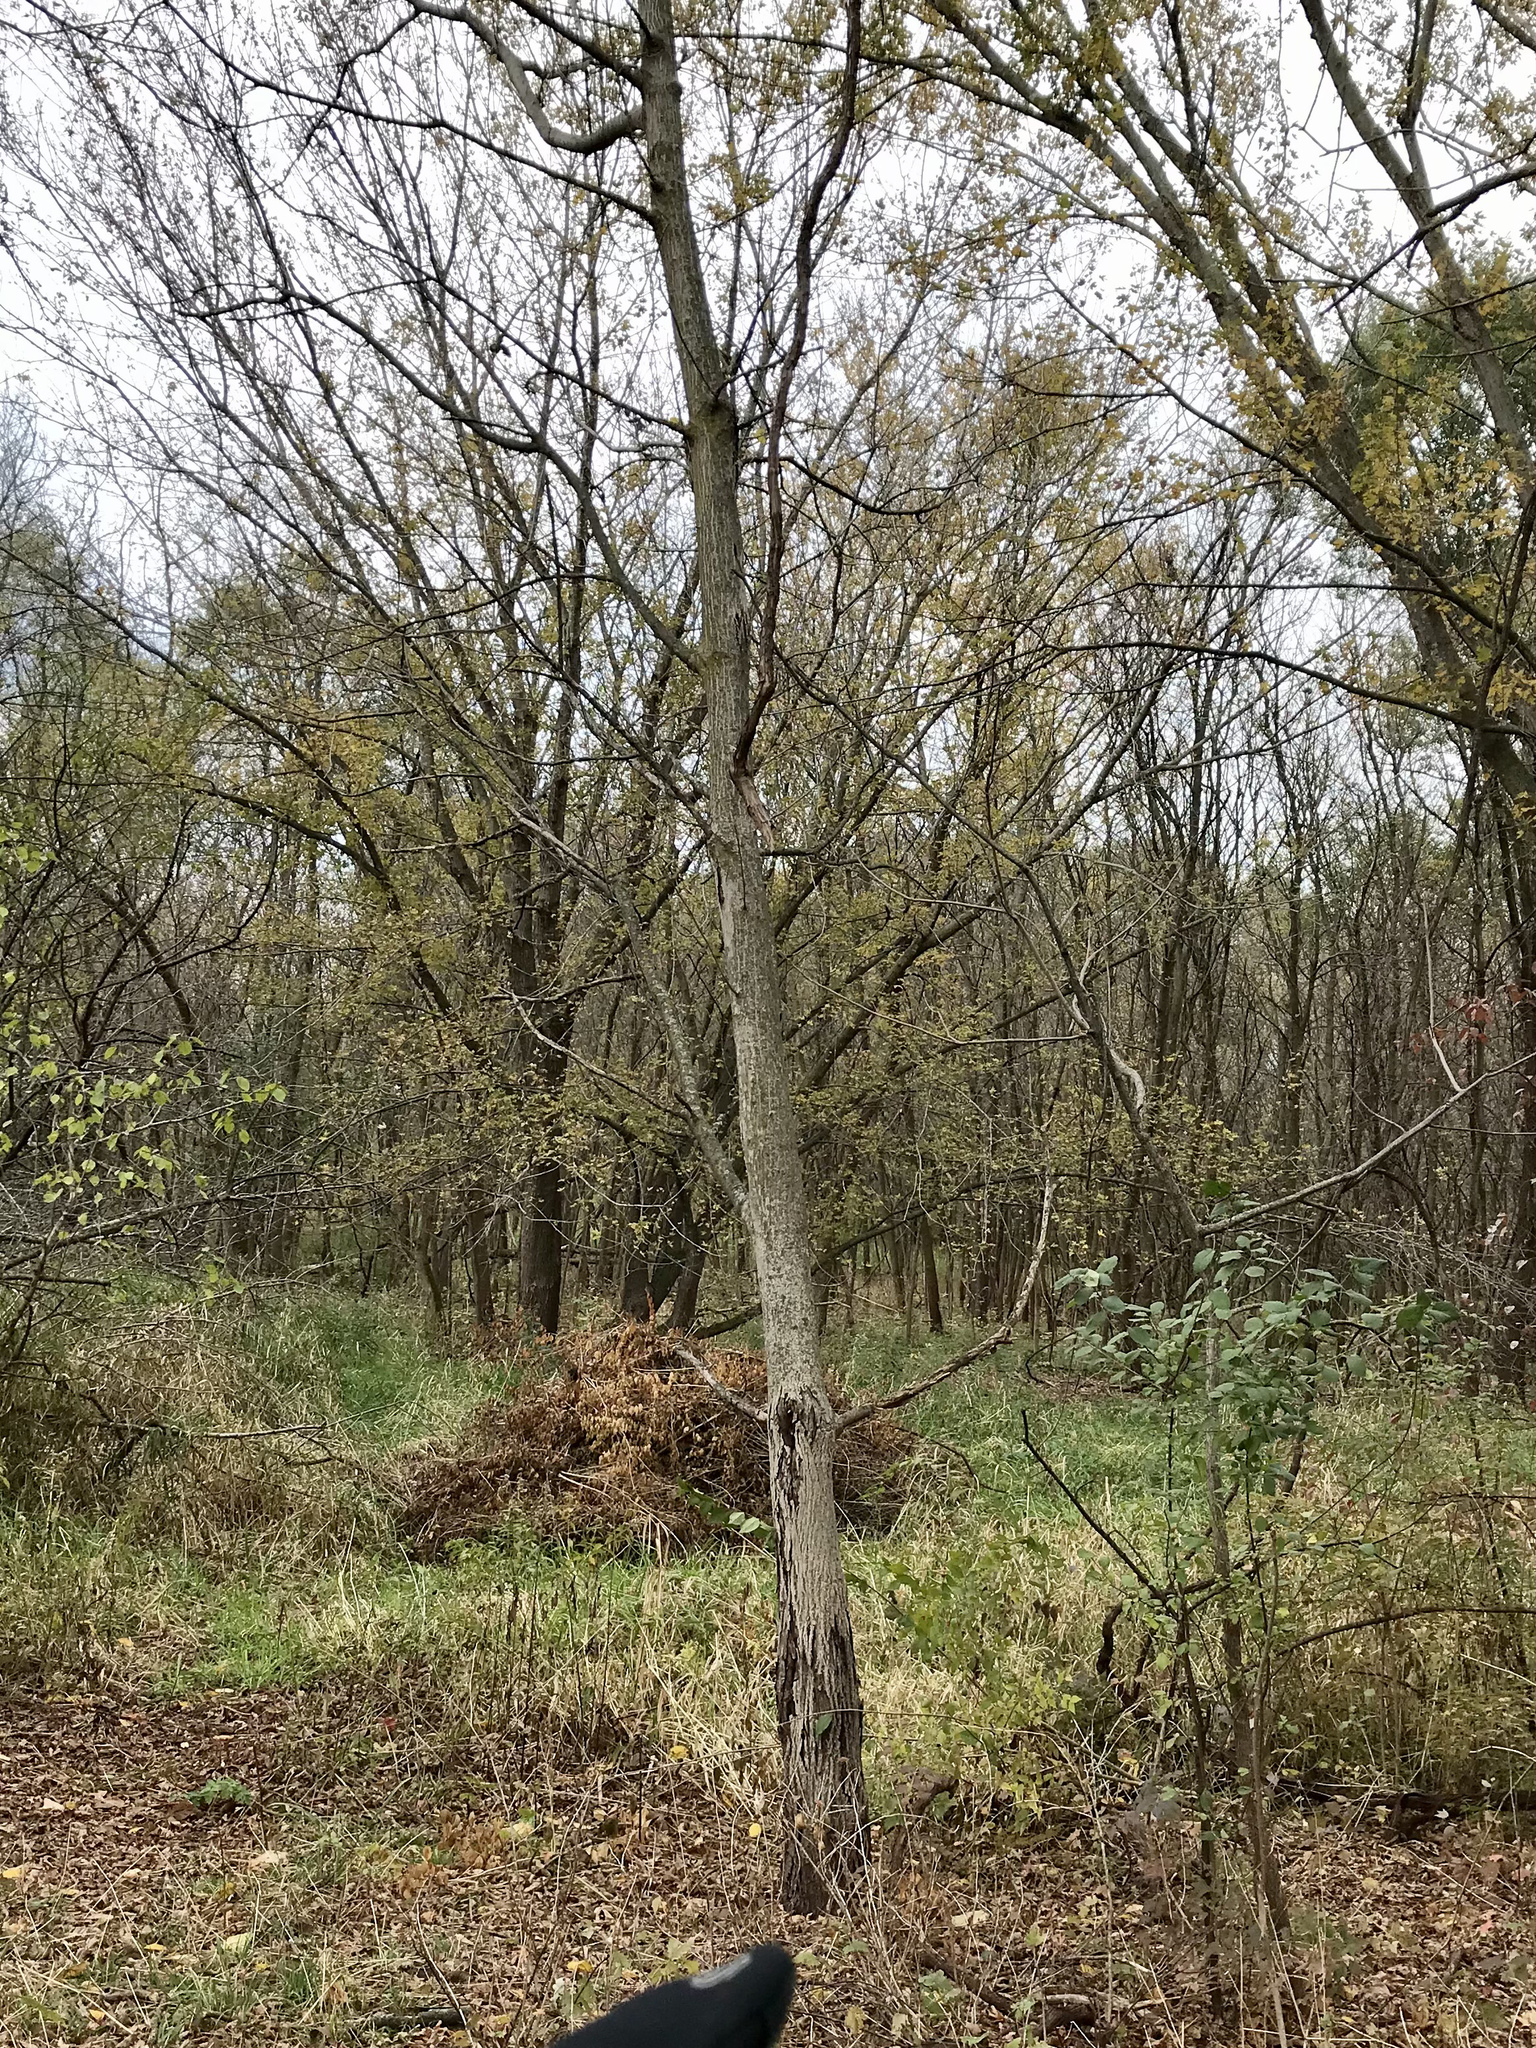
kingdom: Plantae
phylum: Tracheophyta
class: Magnoliopsida
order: Fagales
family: Juglandaceae
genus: Juglans
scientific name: Juglans cinerea
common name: Butternut
